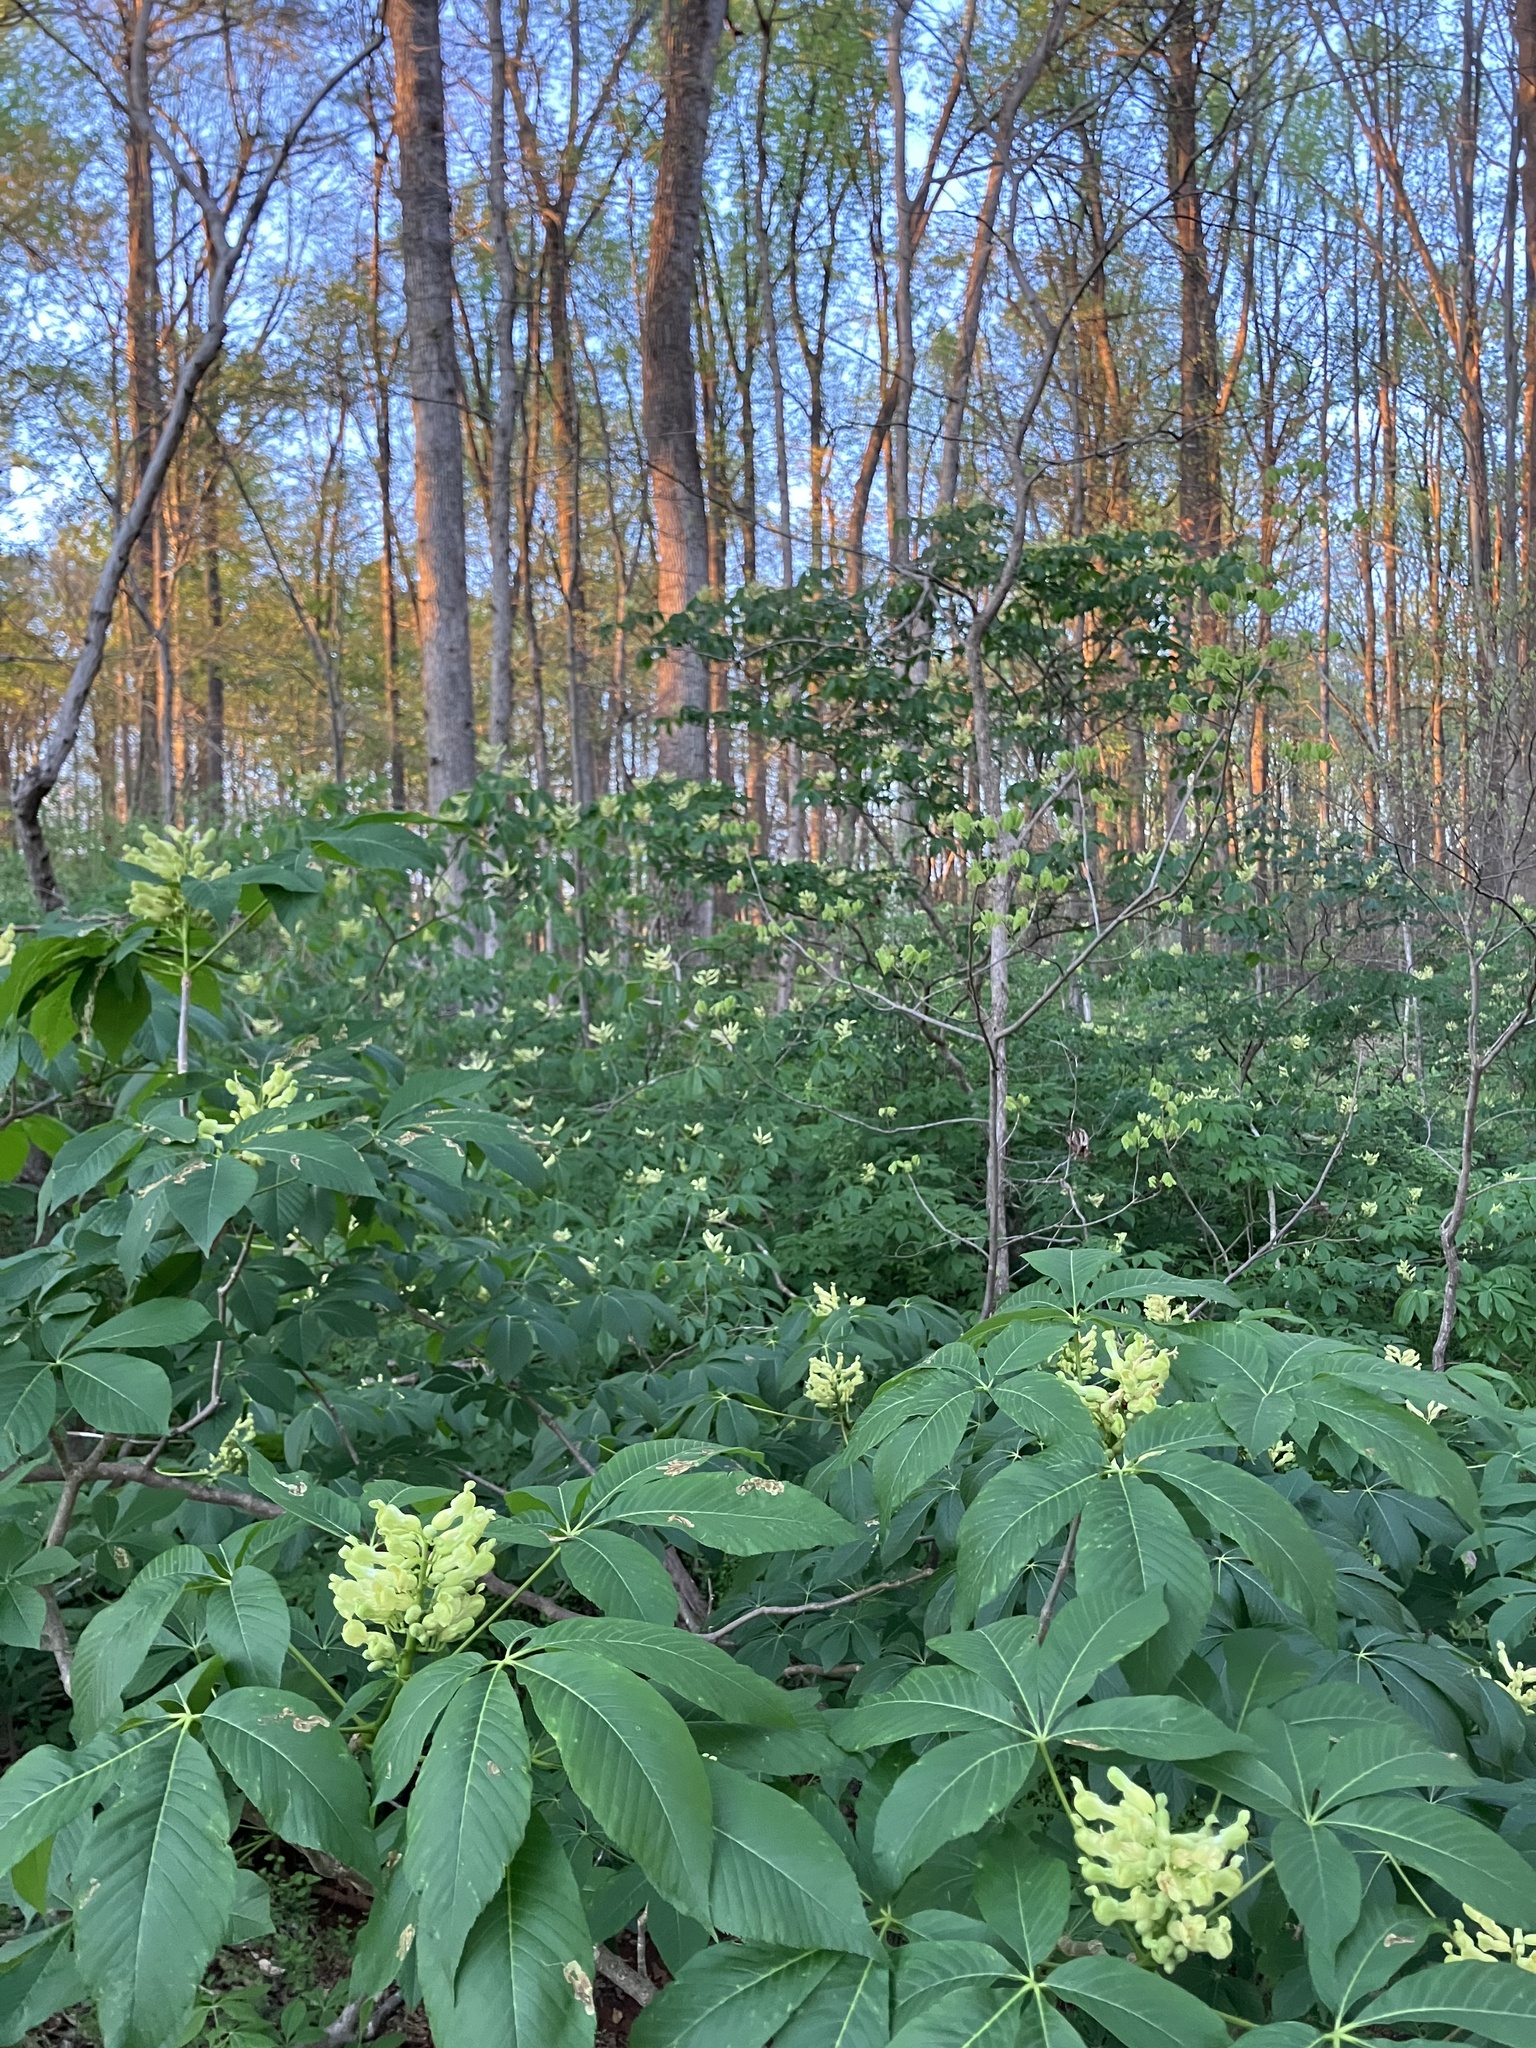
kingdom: Plantae
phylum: Tracheophyta
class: Magnoliopsida
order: Sapindales
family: Sapindaceae
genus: Aesculus
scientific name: Aesculus sylvatica
